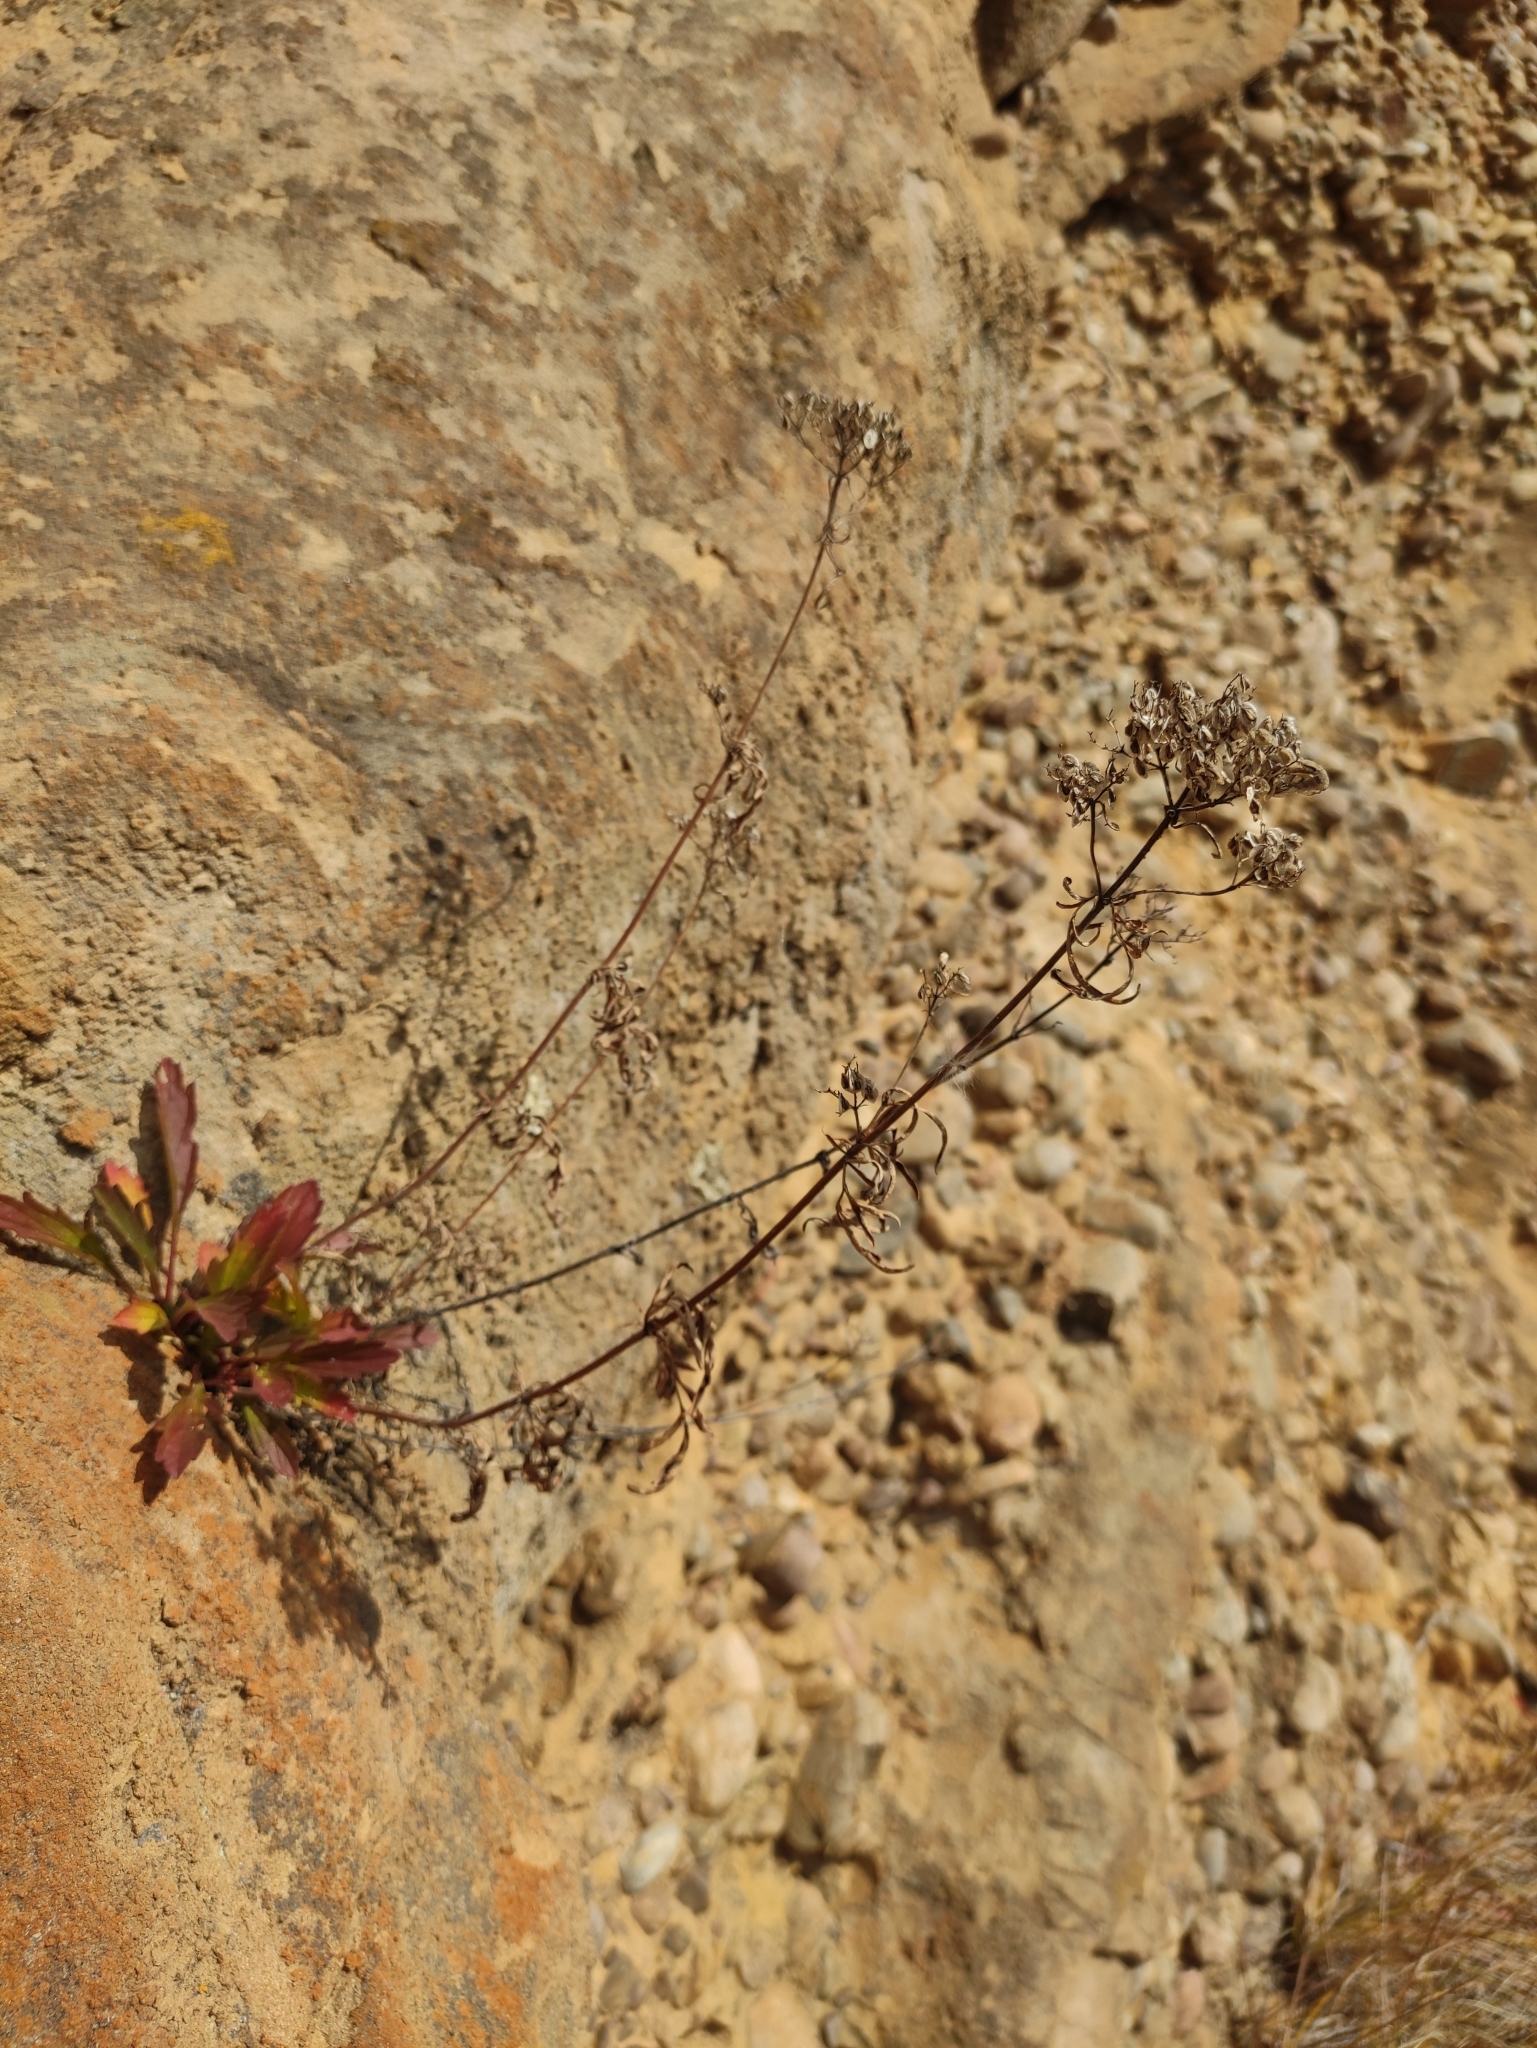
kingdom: Plantae
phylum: Tracheophyta
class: Magnoliopsida
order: Dipsacales
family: Caprifoliaceae
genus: Patrinia
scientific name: Patrinia rupestris
